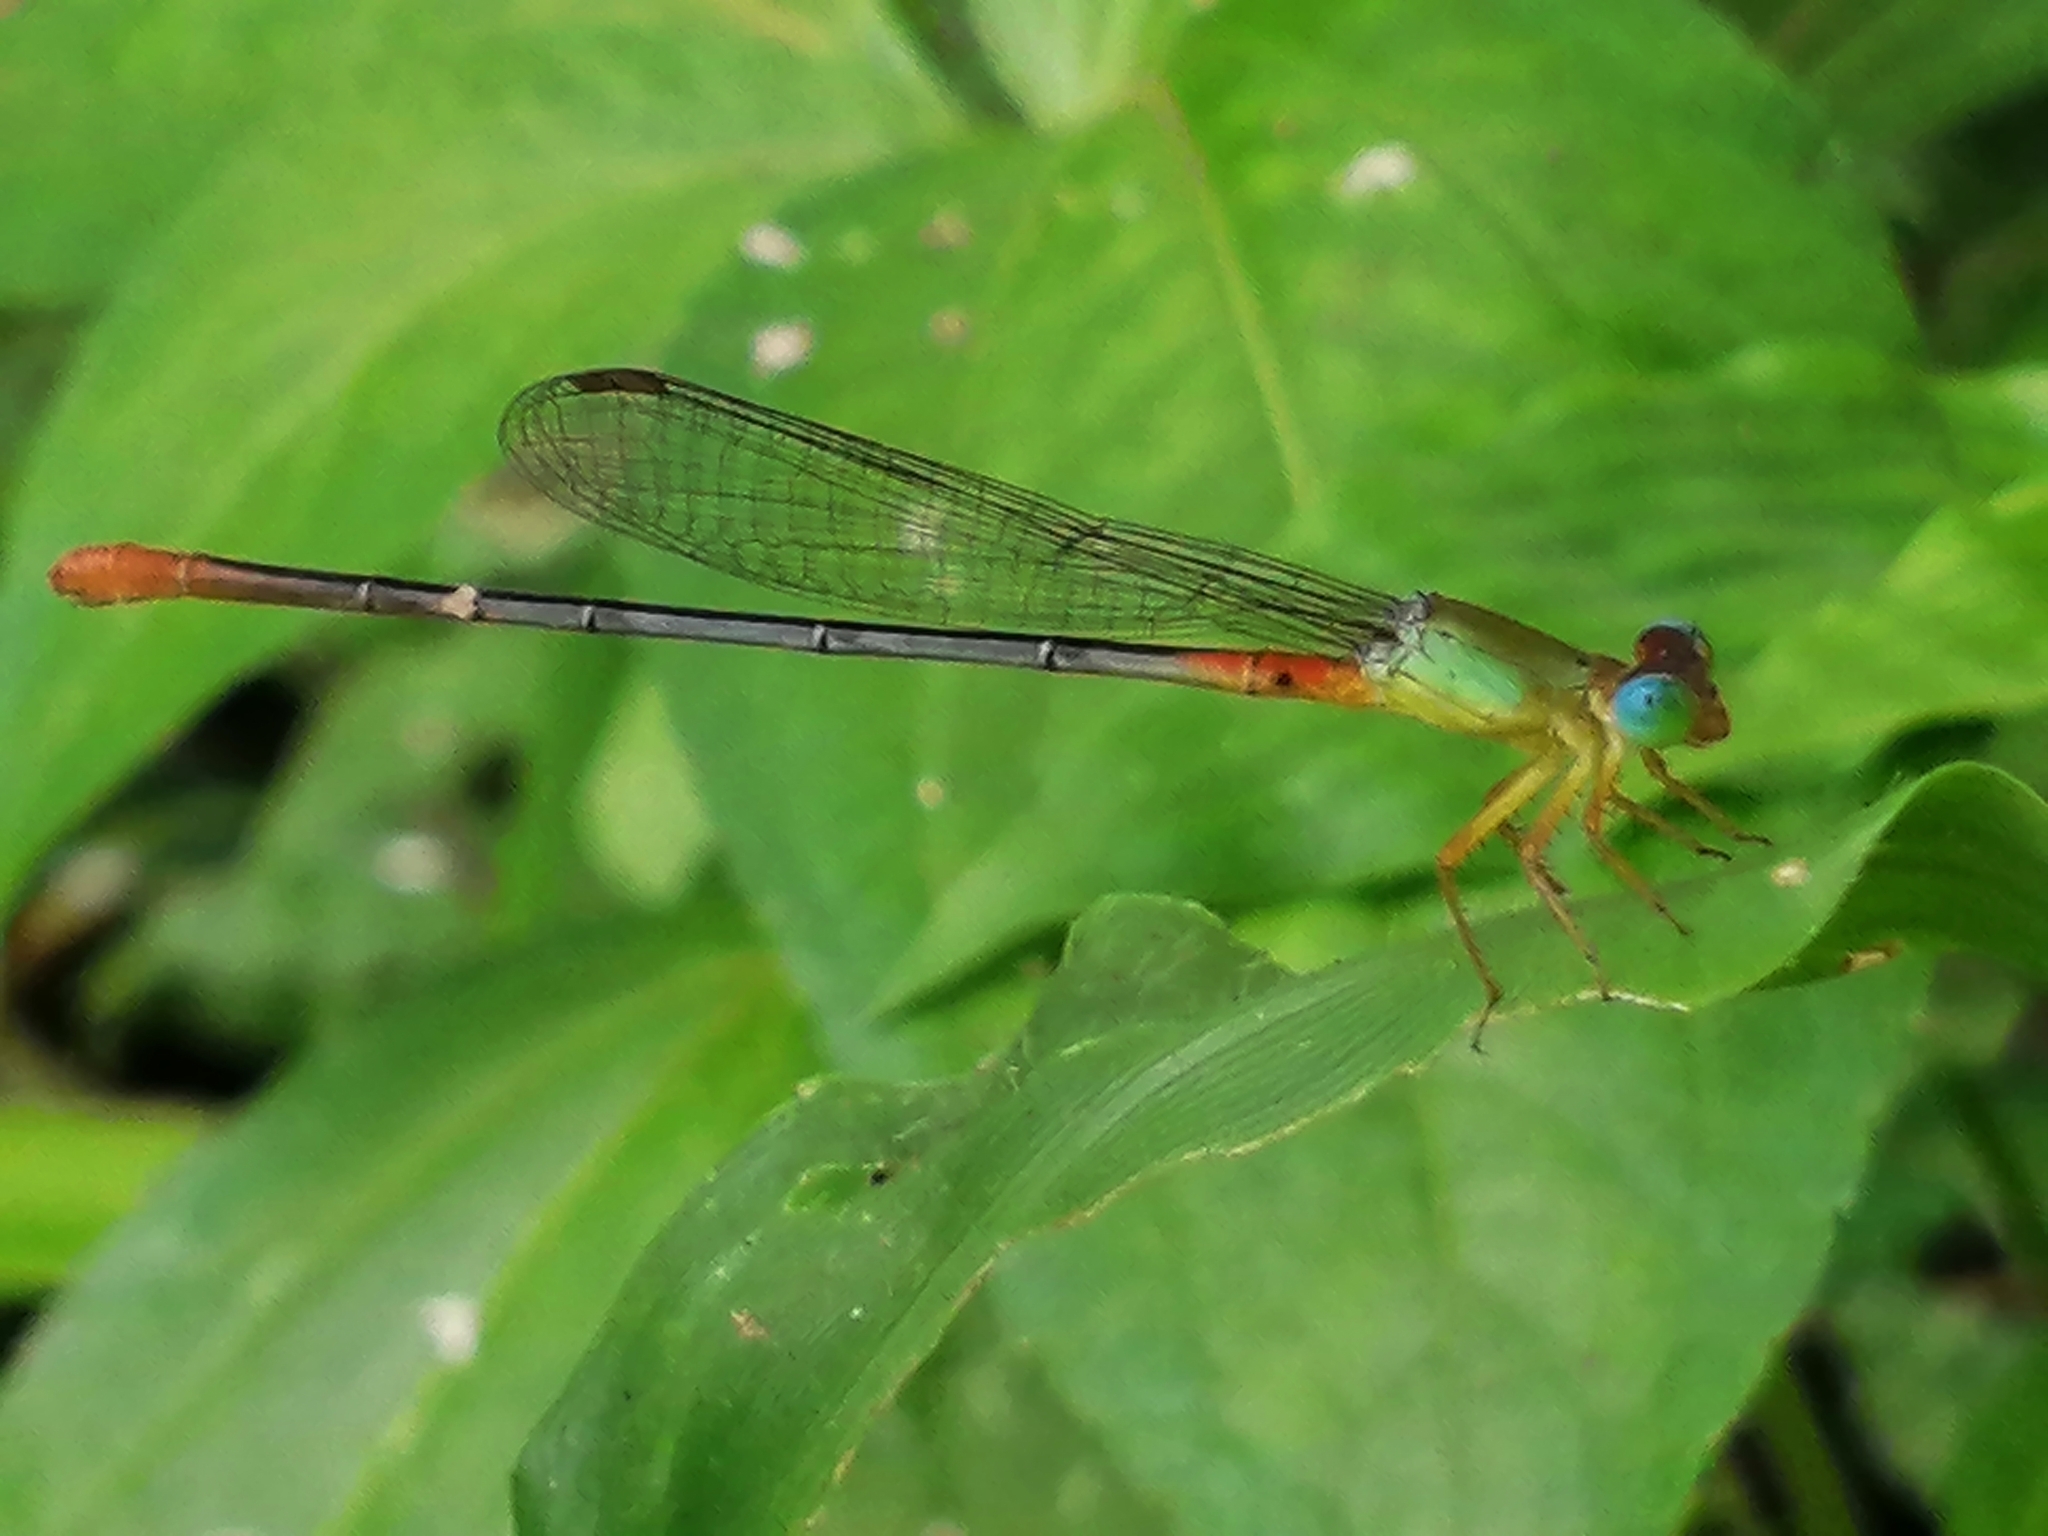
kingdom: Animalia
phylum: Arthropoda
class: Insecta
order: Odonata
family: Coenagrionidae
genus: Ceriagrion
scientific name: Ceriagrion cerinorubellum
